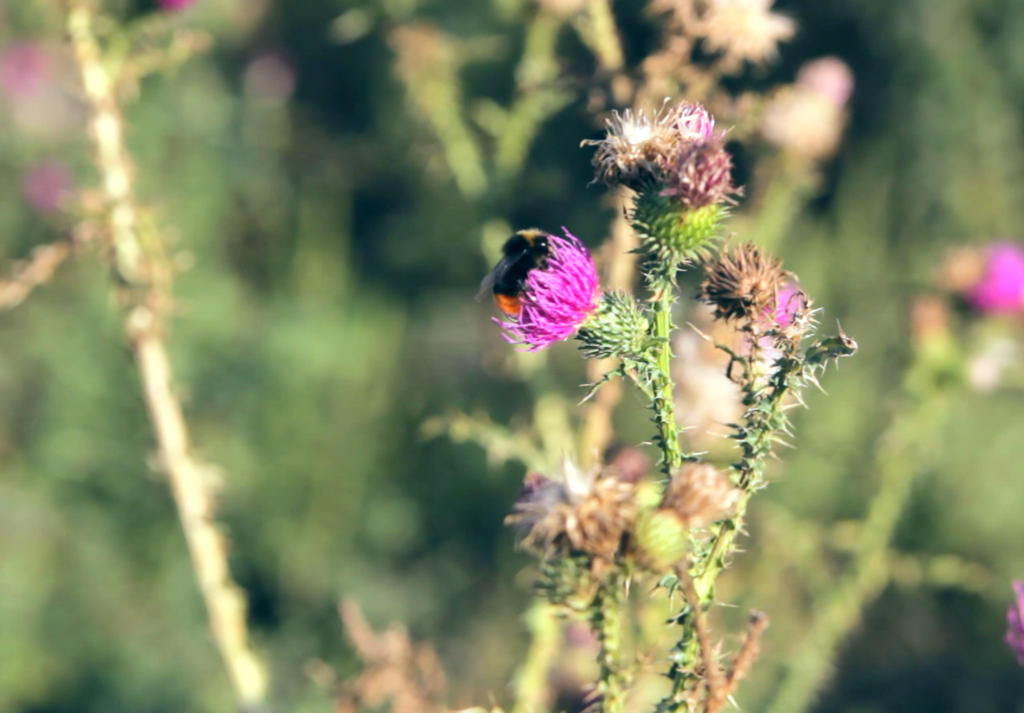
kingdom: Plantae
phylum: Tracheophyta
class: Magnoliopsida
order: Asterales
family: Asteraceae
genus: Carduus
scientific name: Carduus acanthoides
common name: Plumeless thistle
